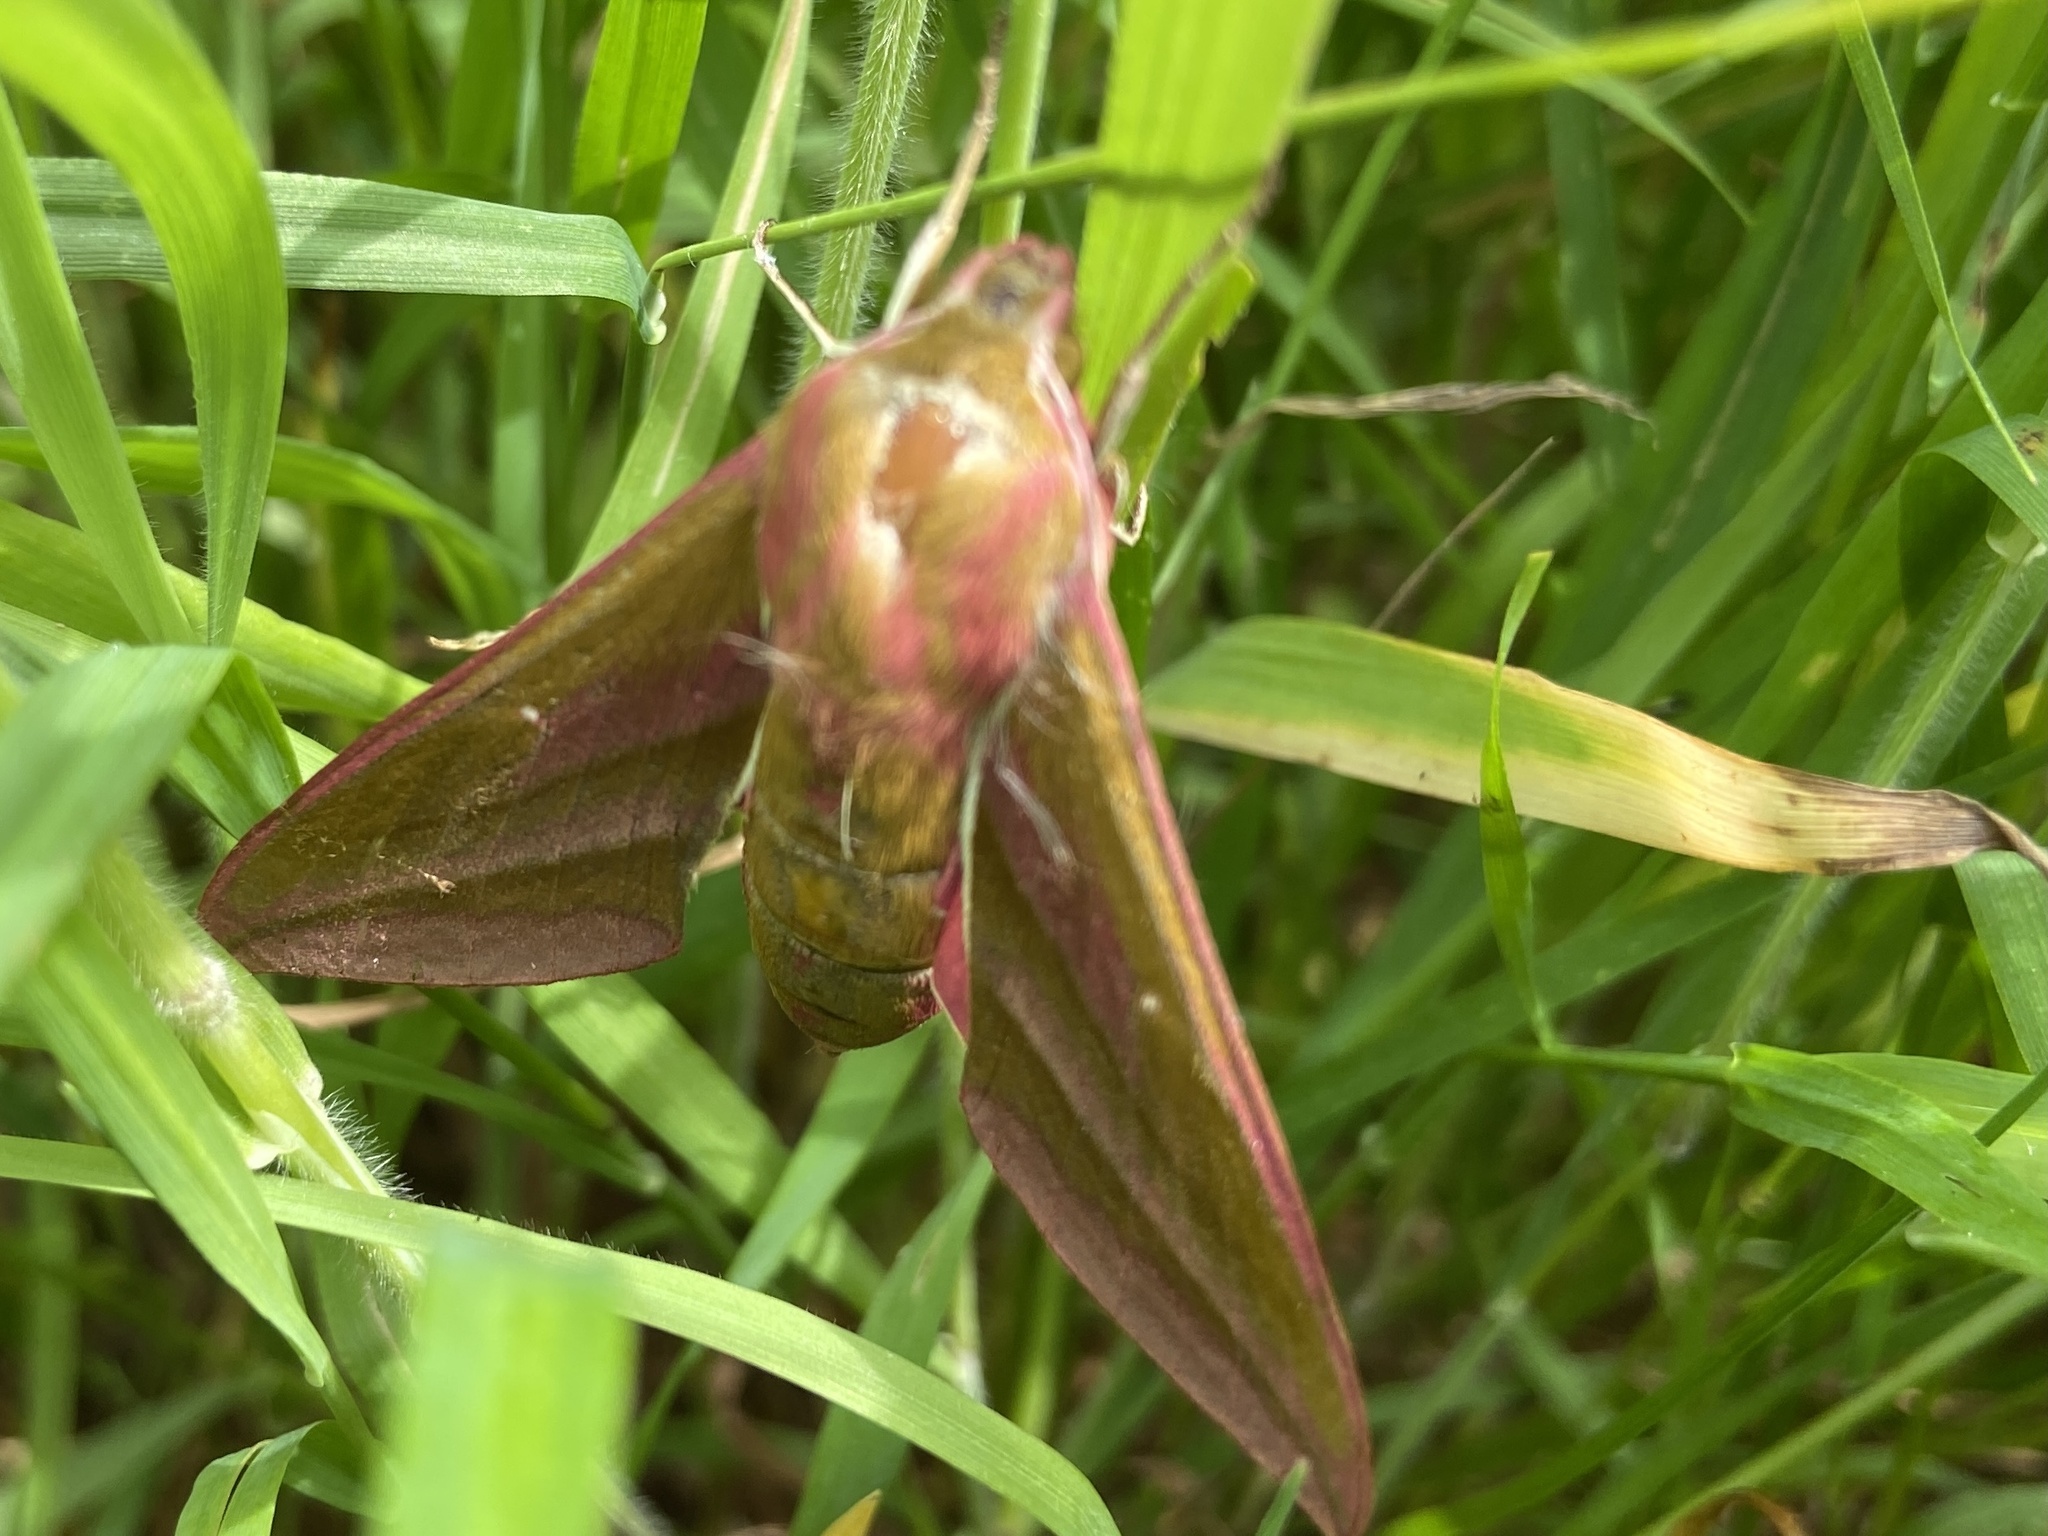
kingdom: Animalia
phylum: Arthropoda
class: Insecta
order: Lepidoptera
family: Sphingidae
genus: Deilephila
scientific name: Deilephila elpenor
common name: Elephant hawk-moth
